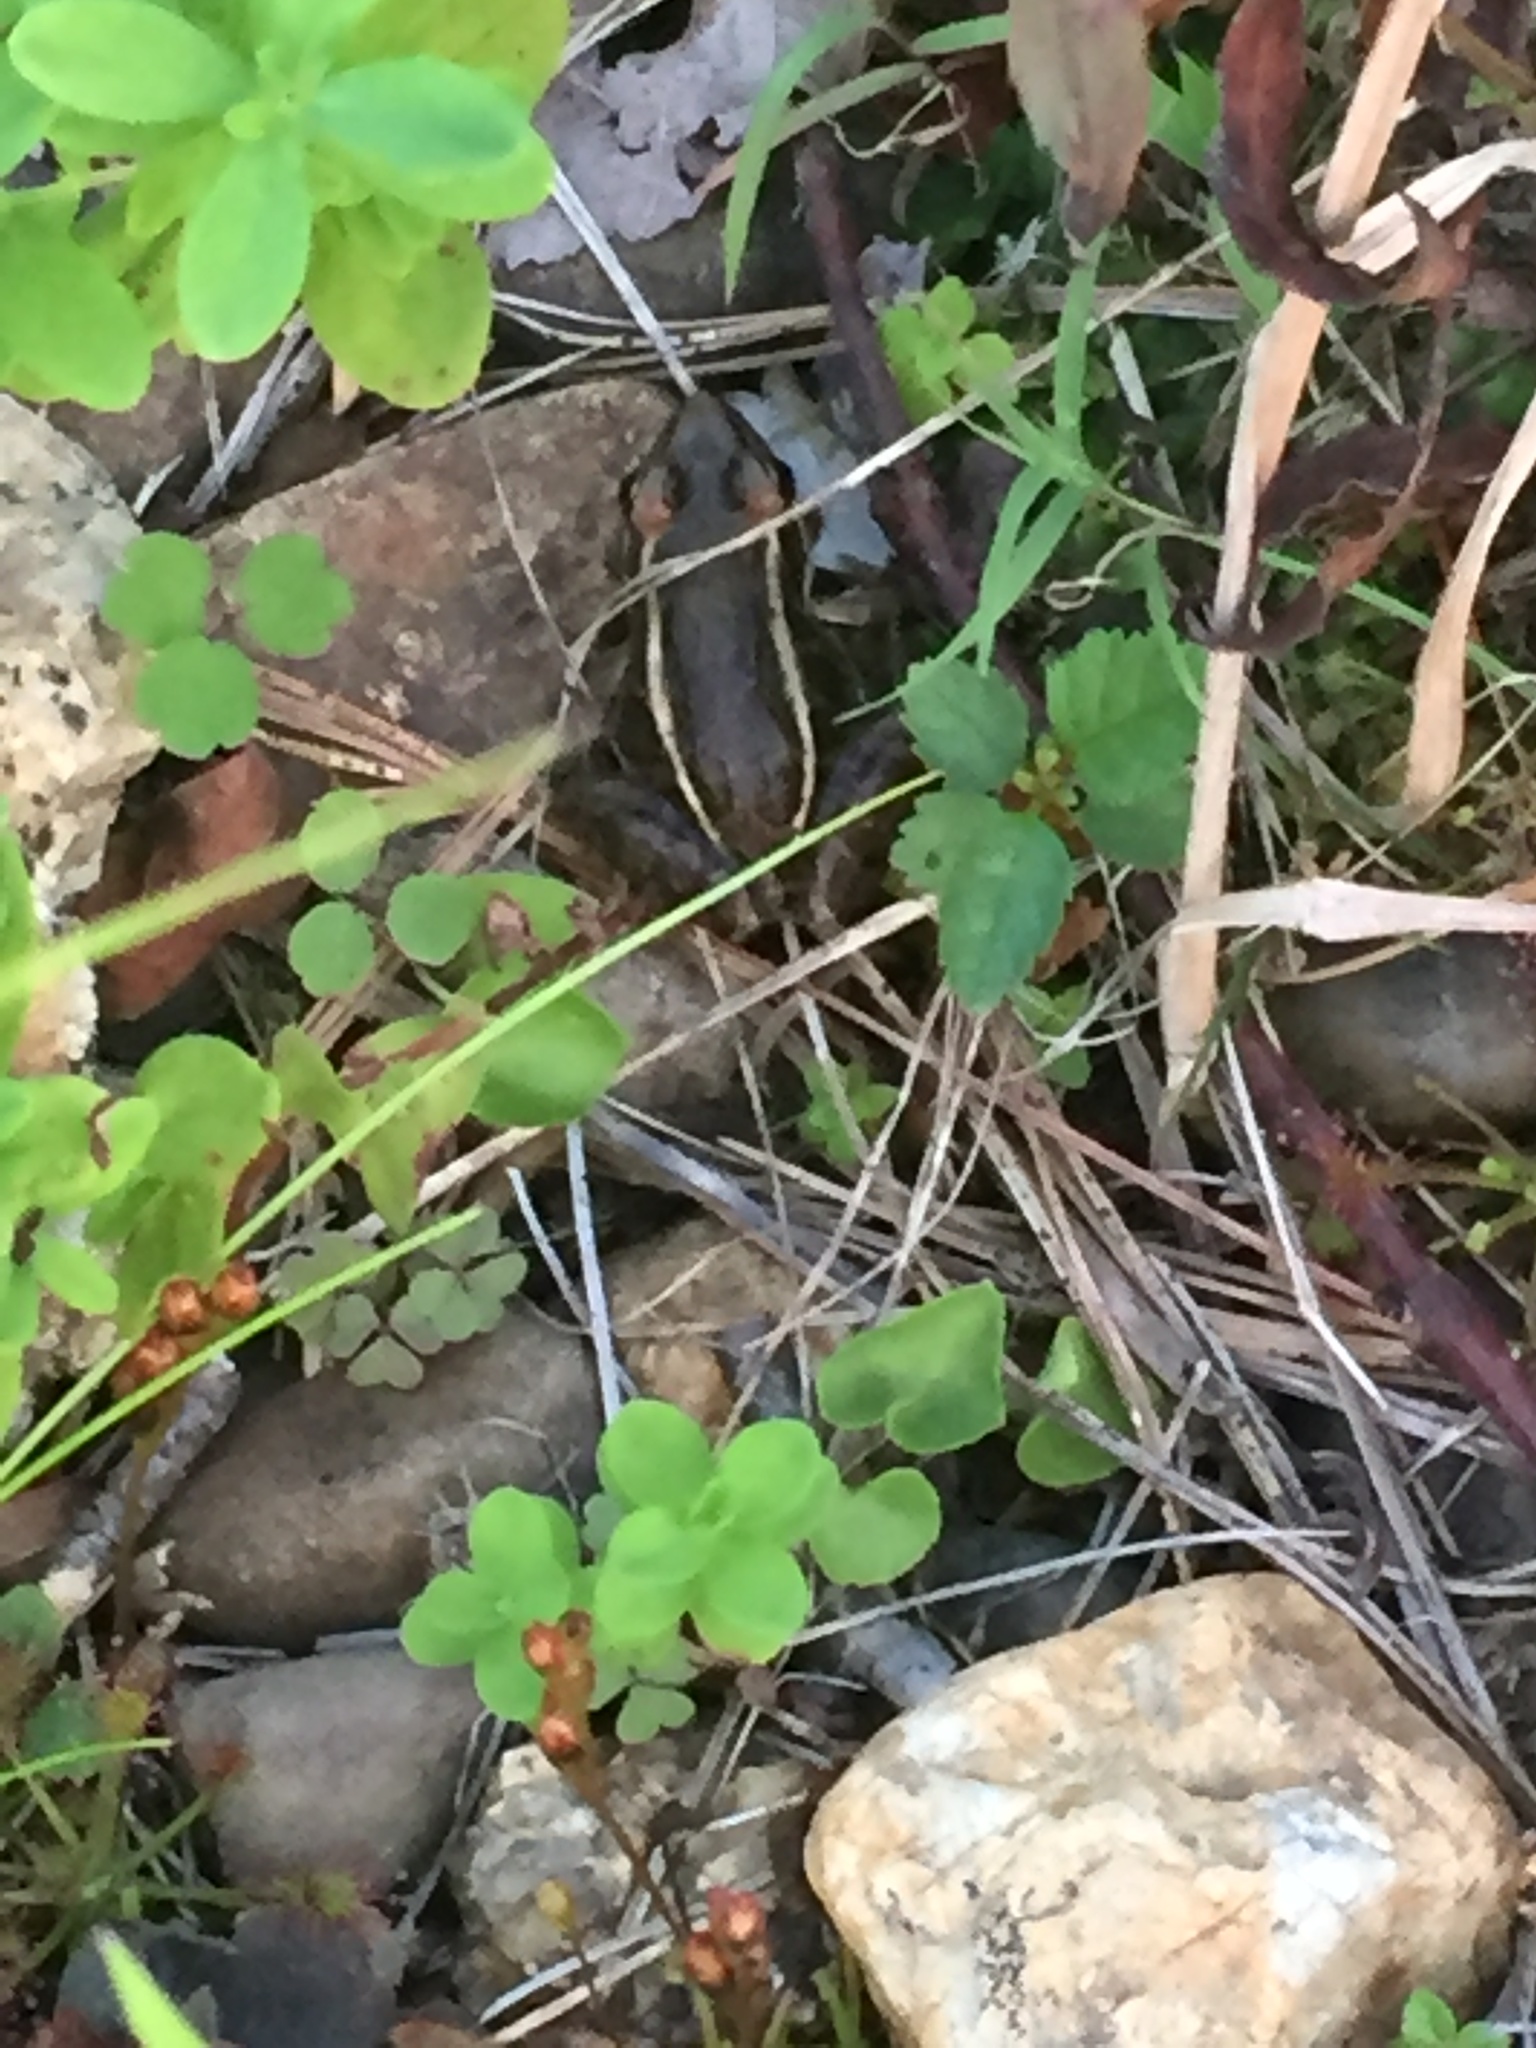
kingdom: Animalia
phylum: Chordata
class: Amphibia
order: Anura
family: Ranidae
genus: Lithobates
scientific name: Lithobates palustris
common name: Pickerel frog
